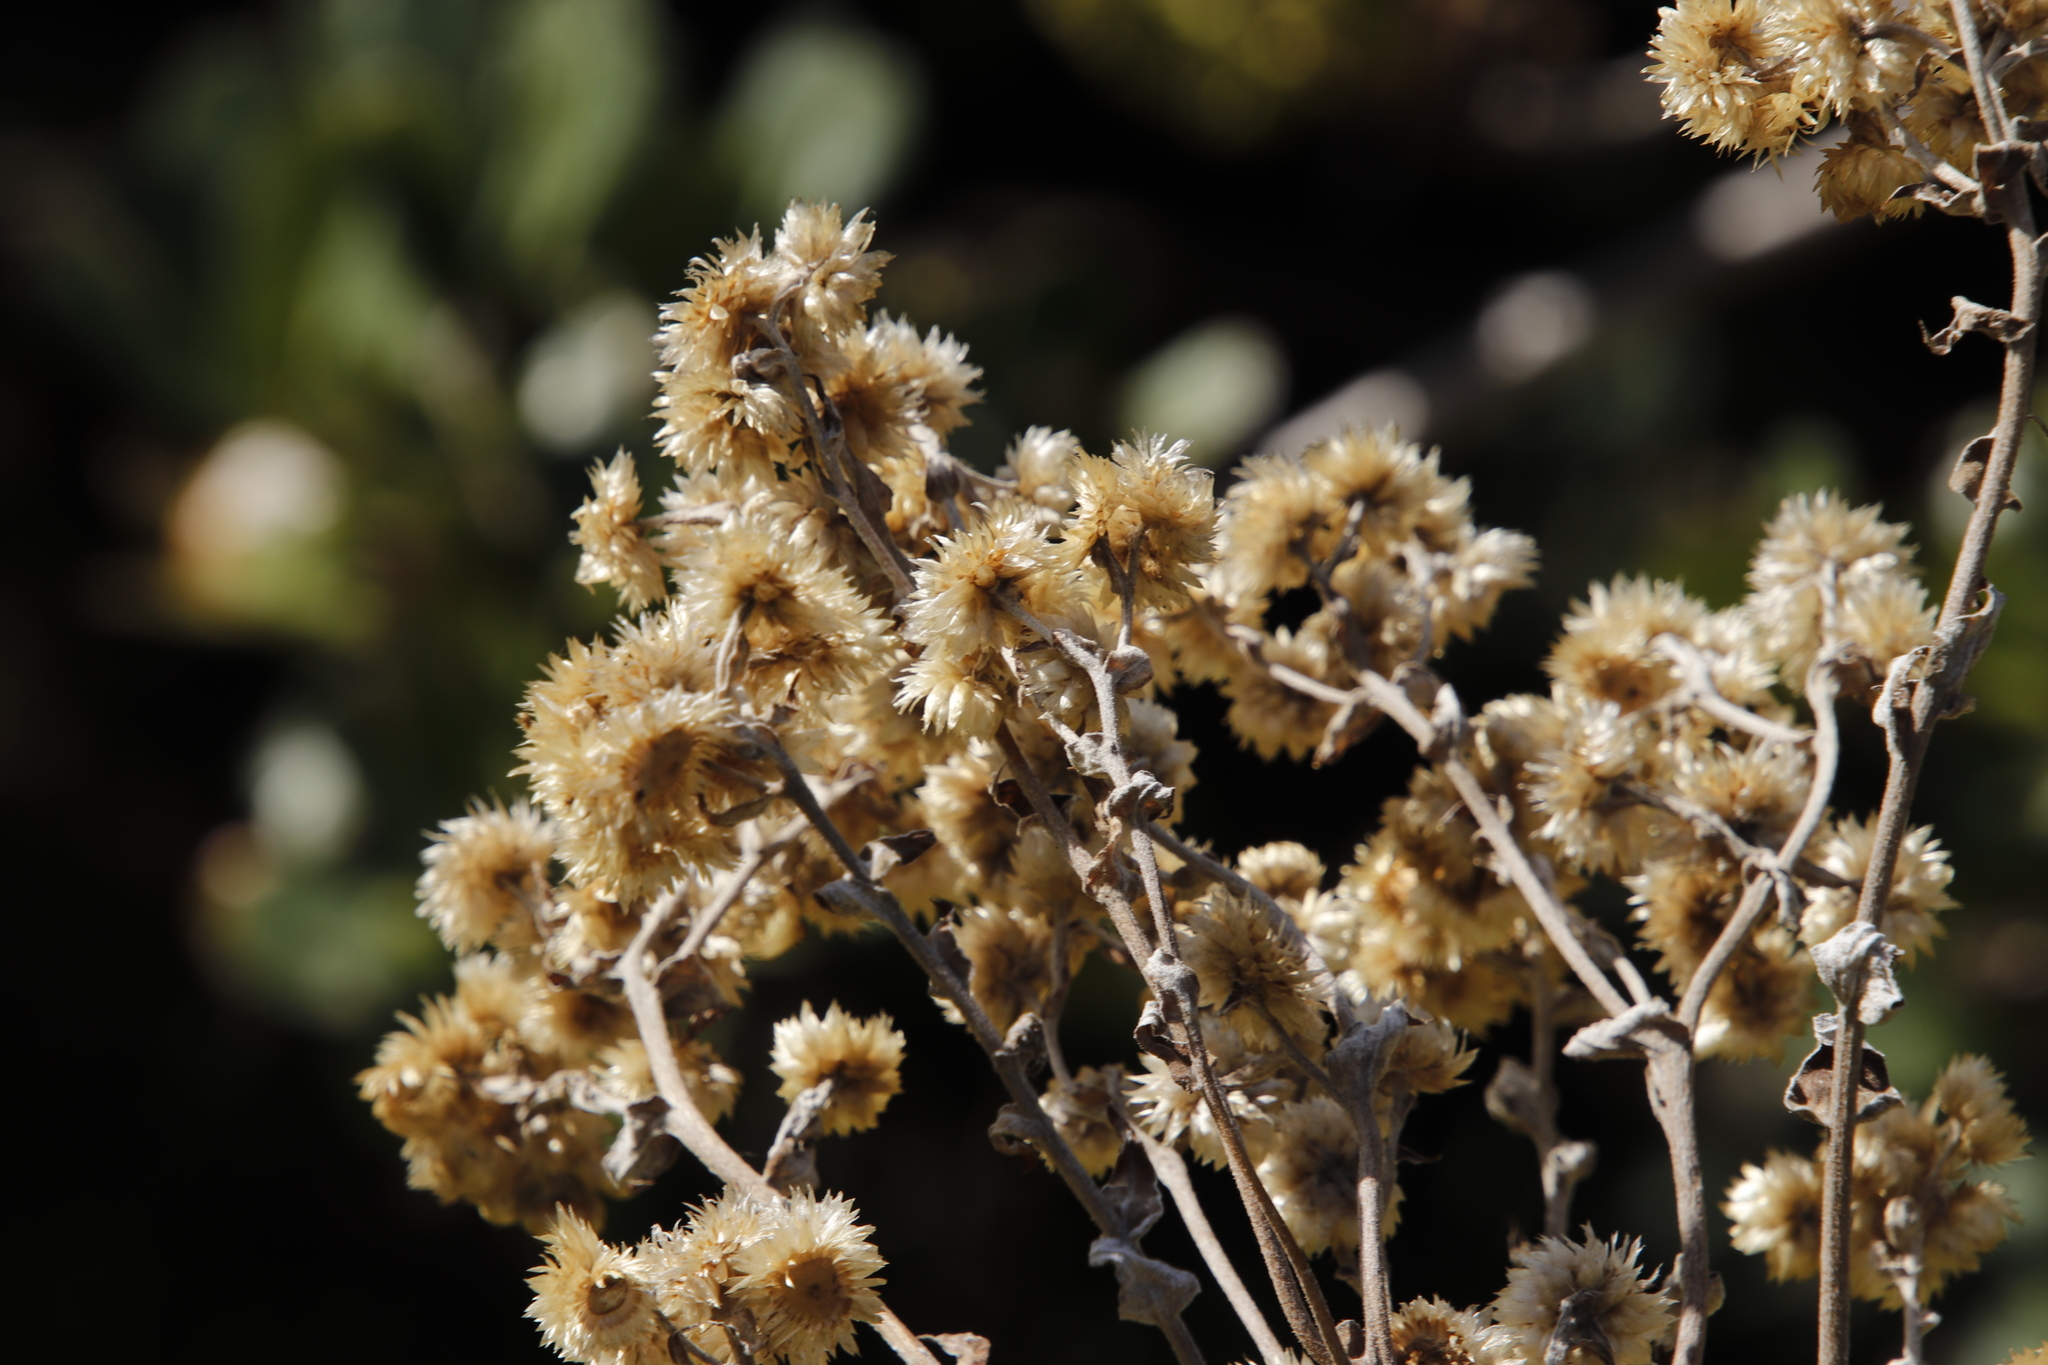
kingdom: Plantae
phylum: Tracheophyta
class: Magnoliopsida
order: Asterales
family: Asteraceae
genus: Helichrysum
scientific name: Helichrysum foetidum
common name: Stinking everlasting
